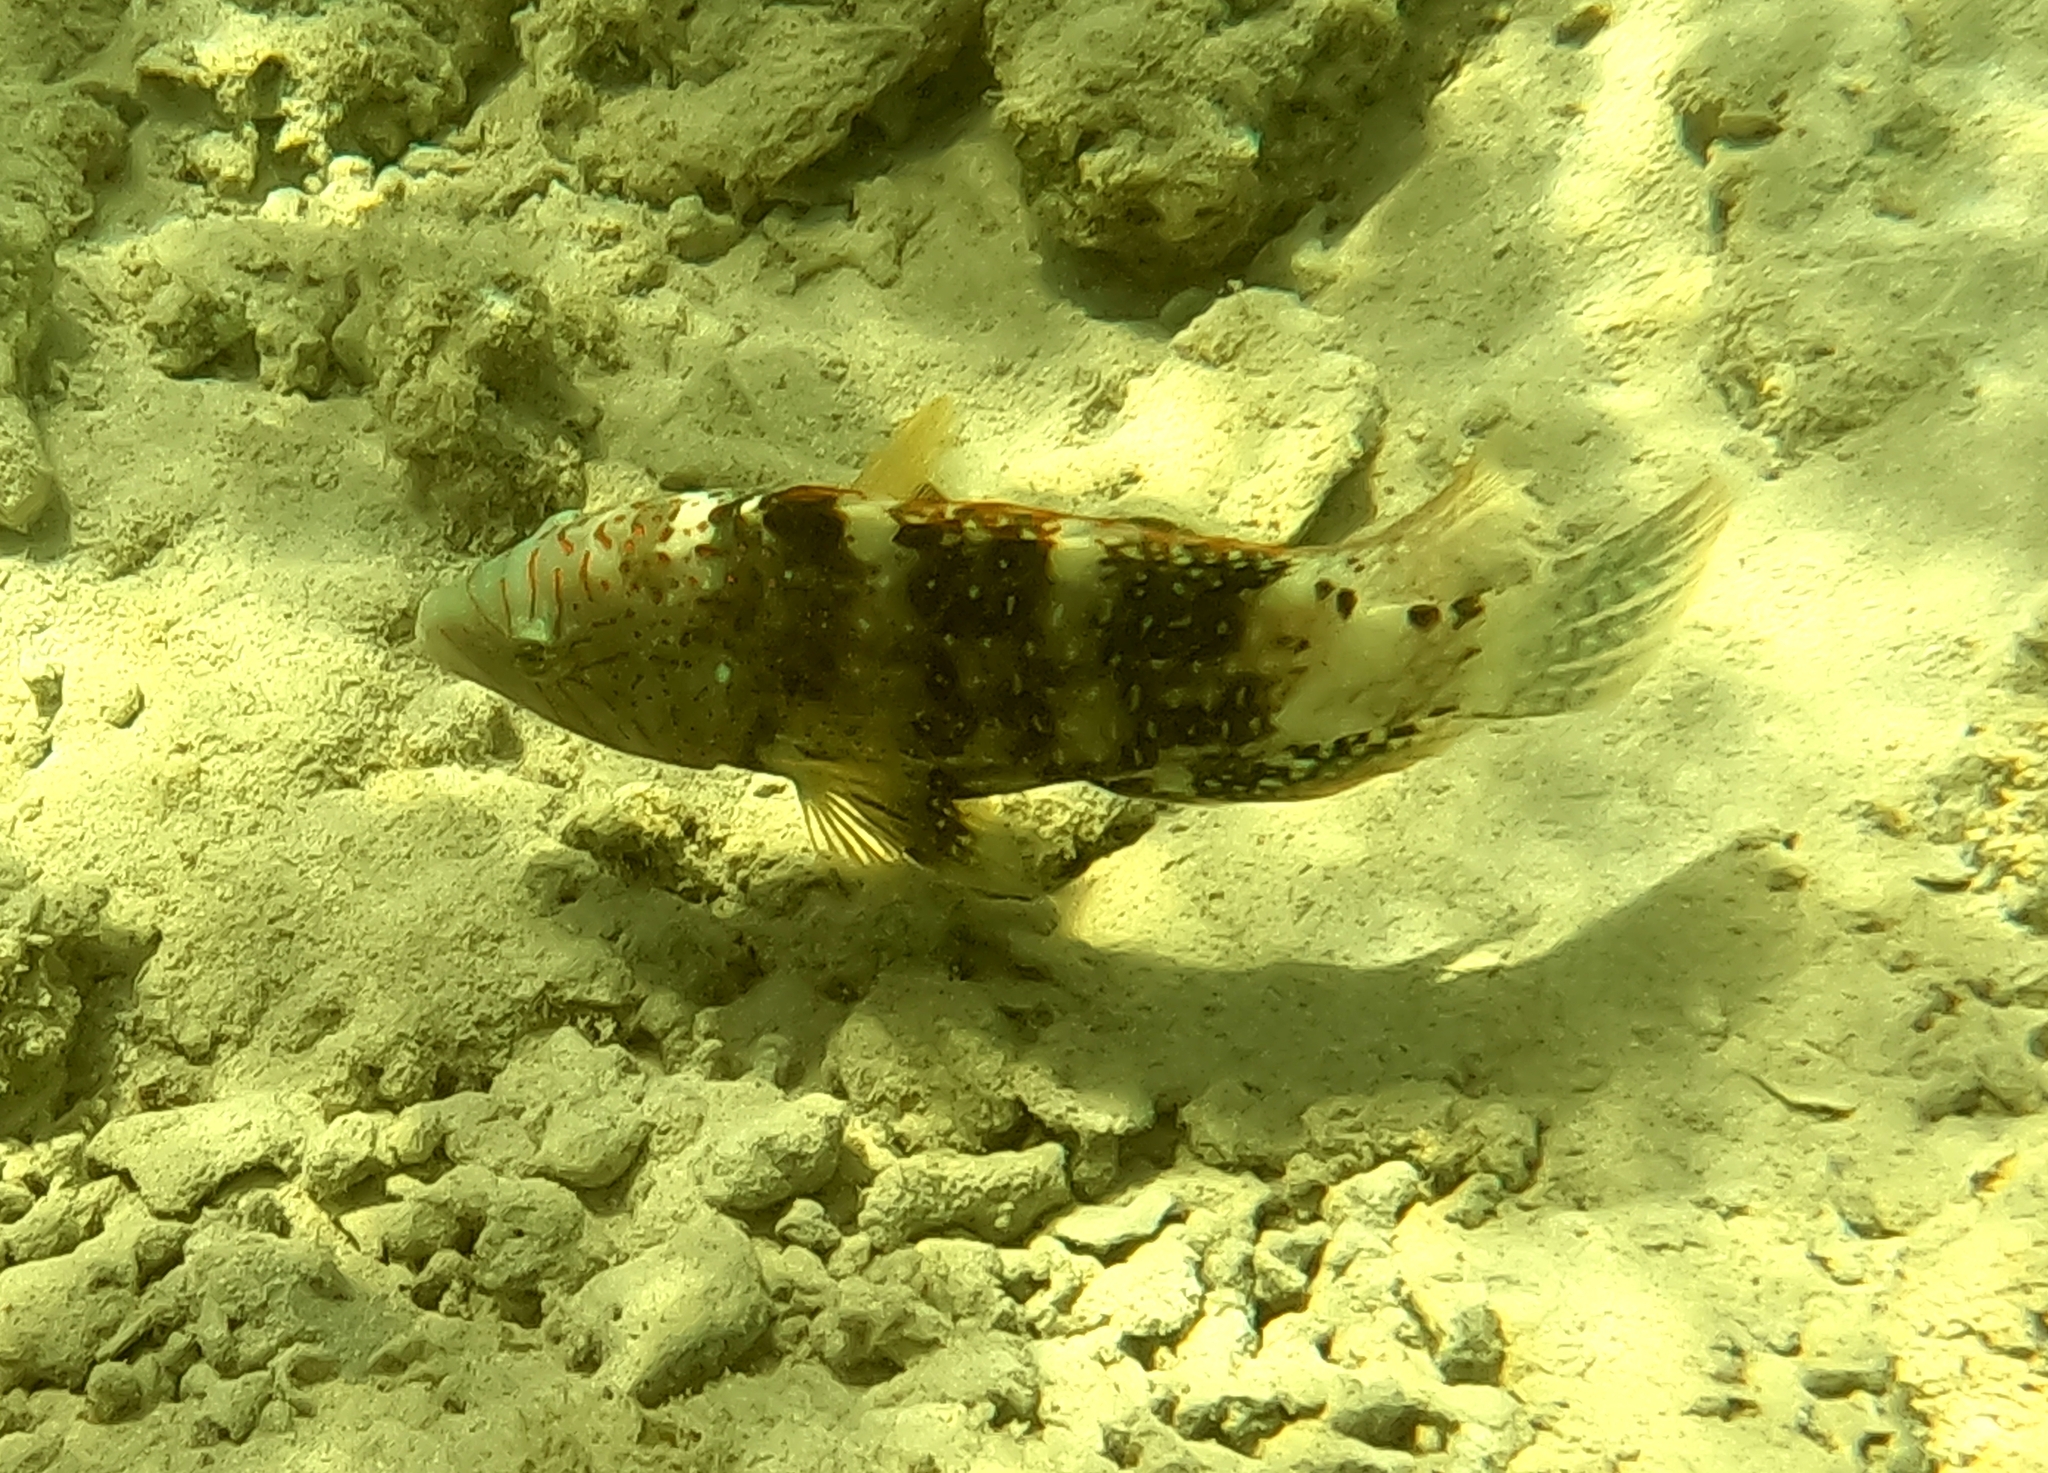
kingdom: Animalia
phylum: Chordata
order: Perciformes
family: Labridae
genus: Cheilinus
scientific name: Cheilinus abudjubbe
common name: Abudjubbe’s splendor wrasse
